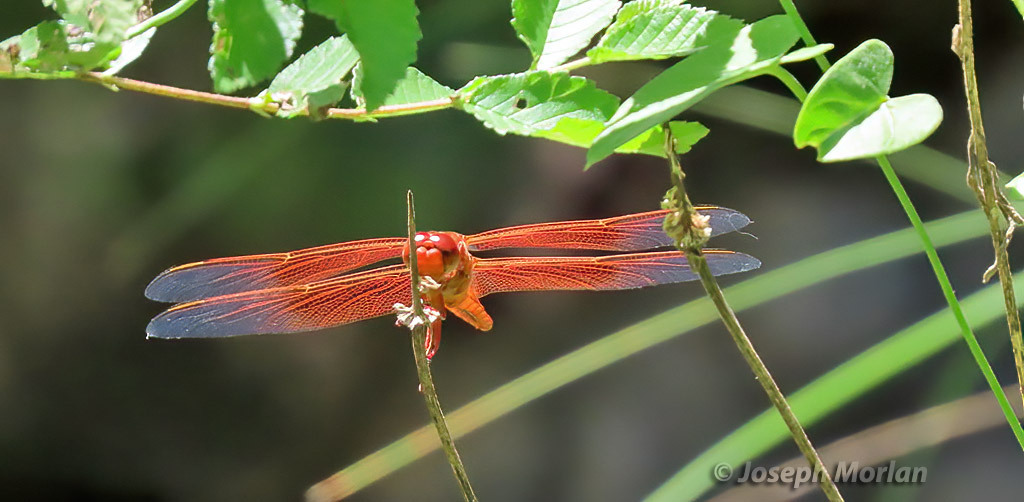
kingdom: Animalia
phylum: Arthropoda
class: Insecta
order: Odonata
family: Libellulidae
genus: Libellula
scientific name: Libellula saturata
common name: Flame skimmer
